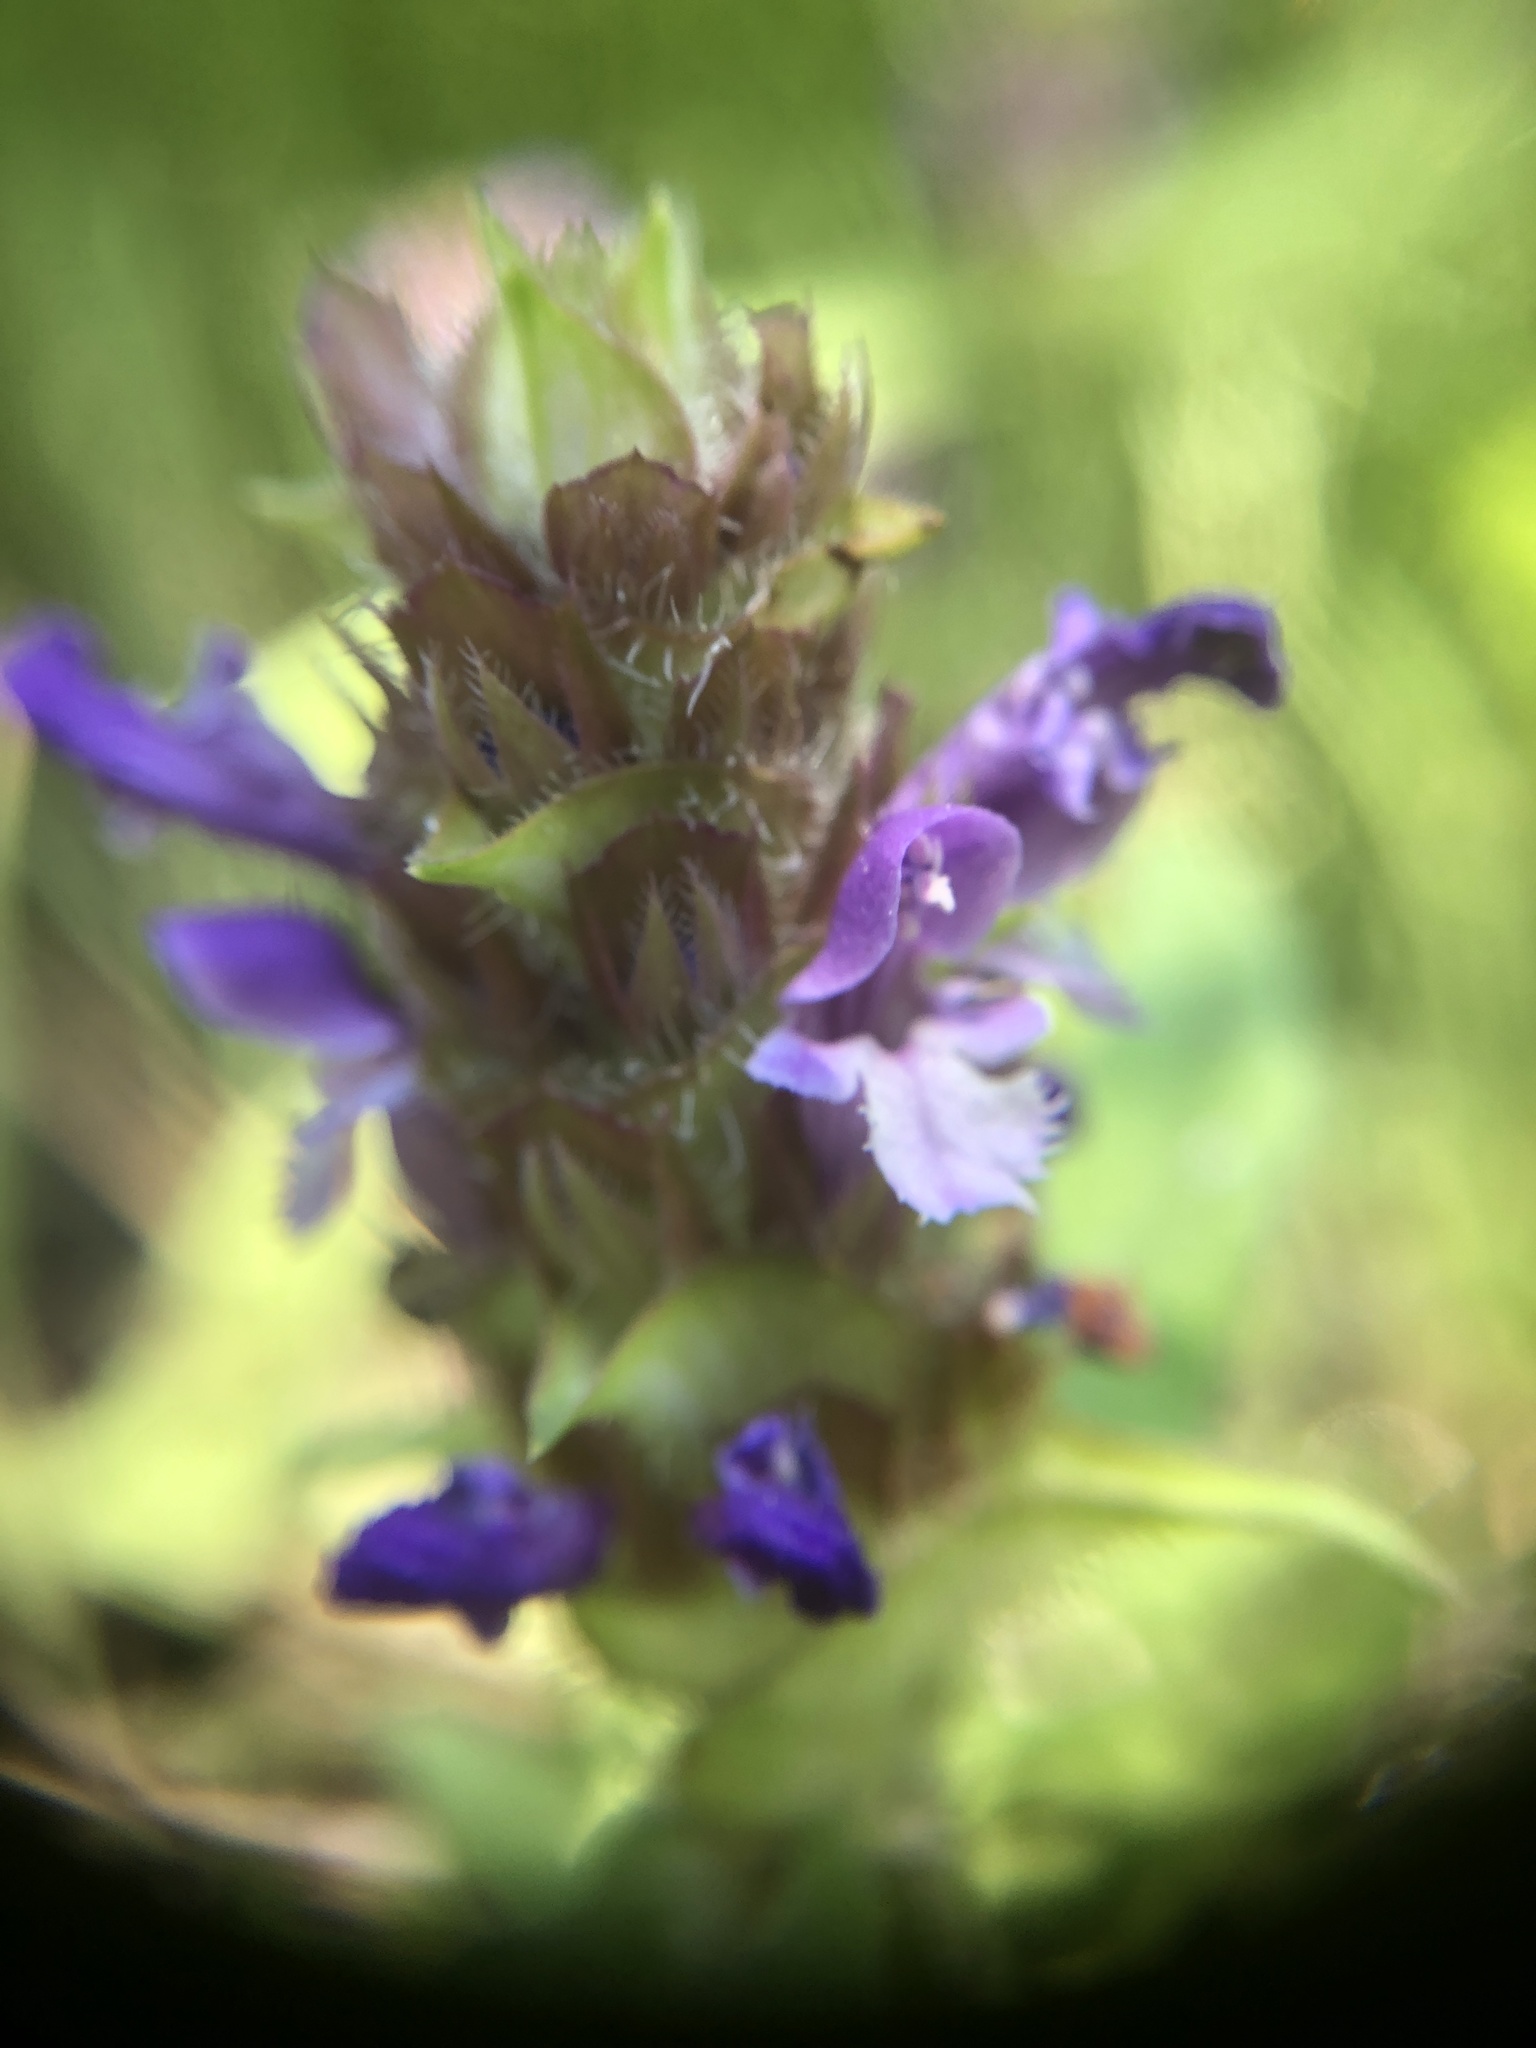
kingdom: Plantae
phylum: Tracheophyta
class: Magnoliopsida
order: Lamiales
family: Lamiaceae
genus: Prunella
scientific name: Prunella vulgaris
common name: Heal-all
